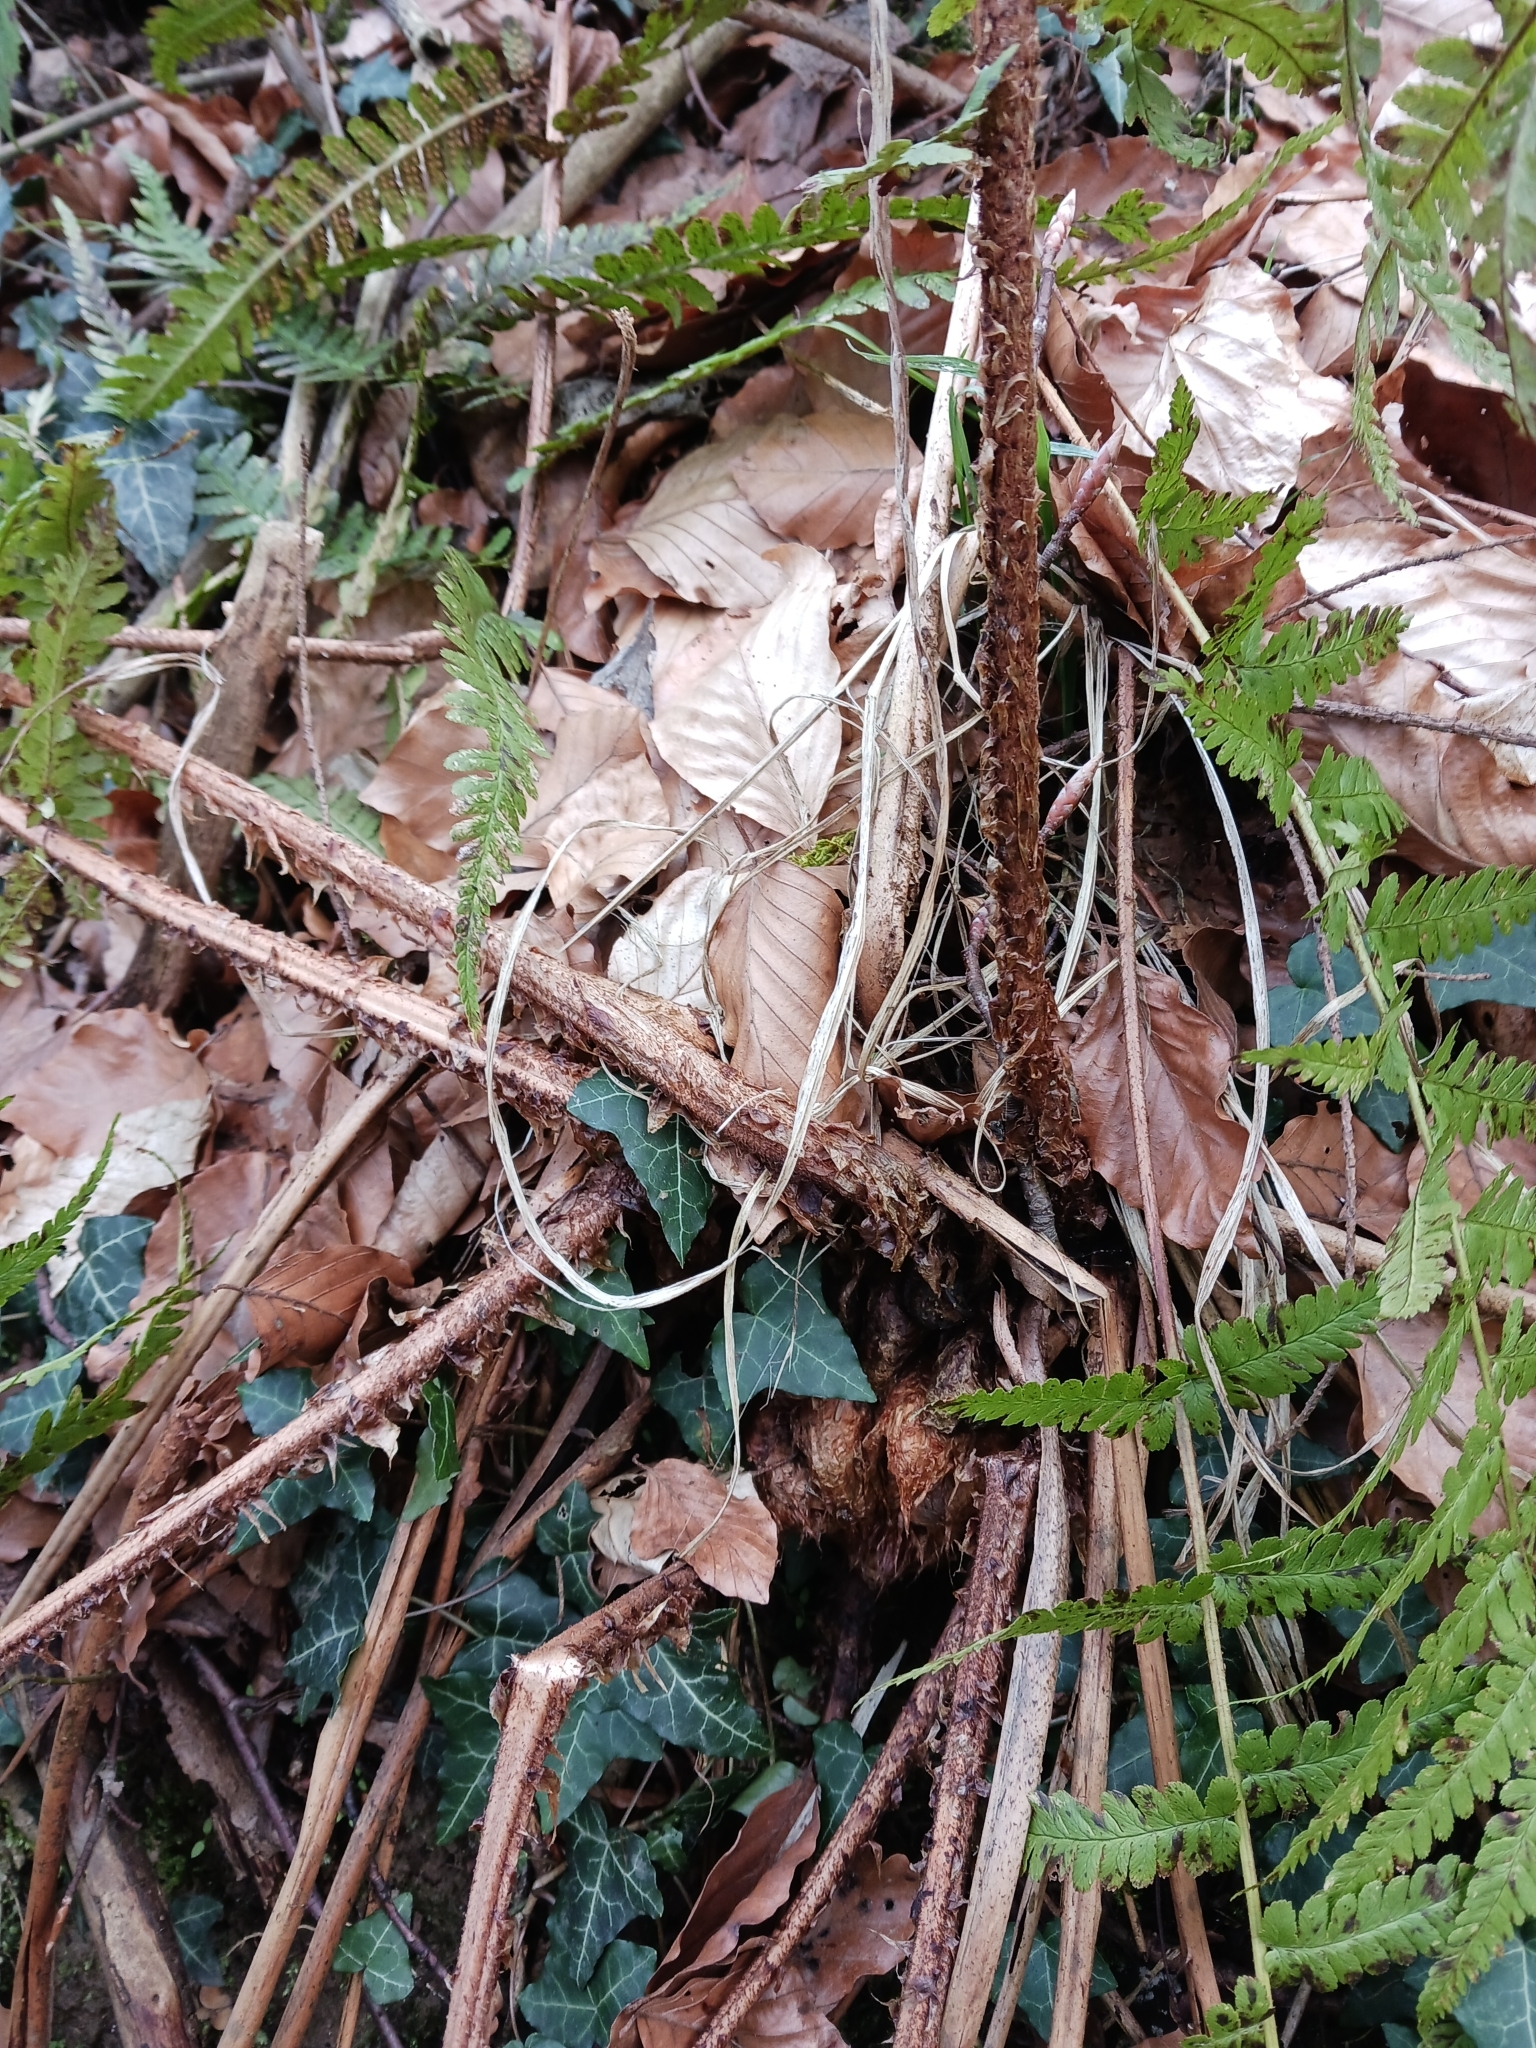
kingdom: Plantae
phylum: Tracheophyta
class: Polypodiopsida
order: Polypodiales
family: Dryopteridaceae
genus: Dryopteris
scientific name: Dryopteris filix-mas
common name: Male fern
